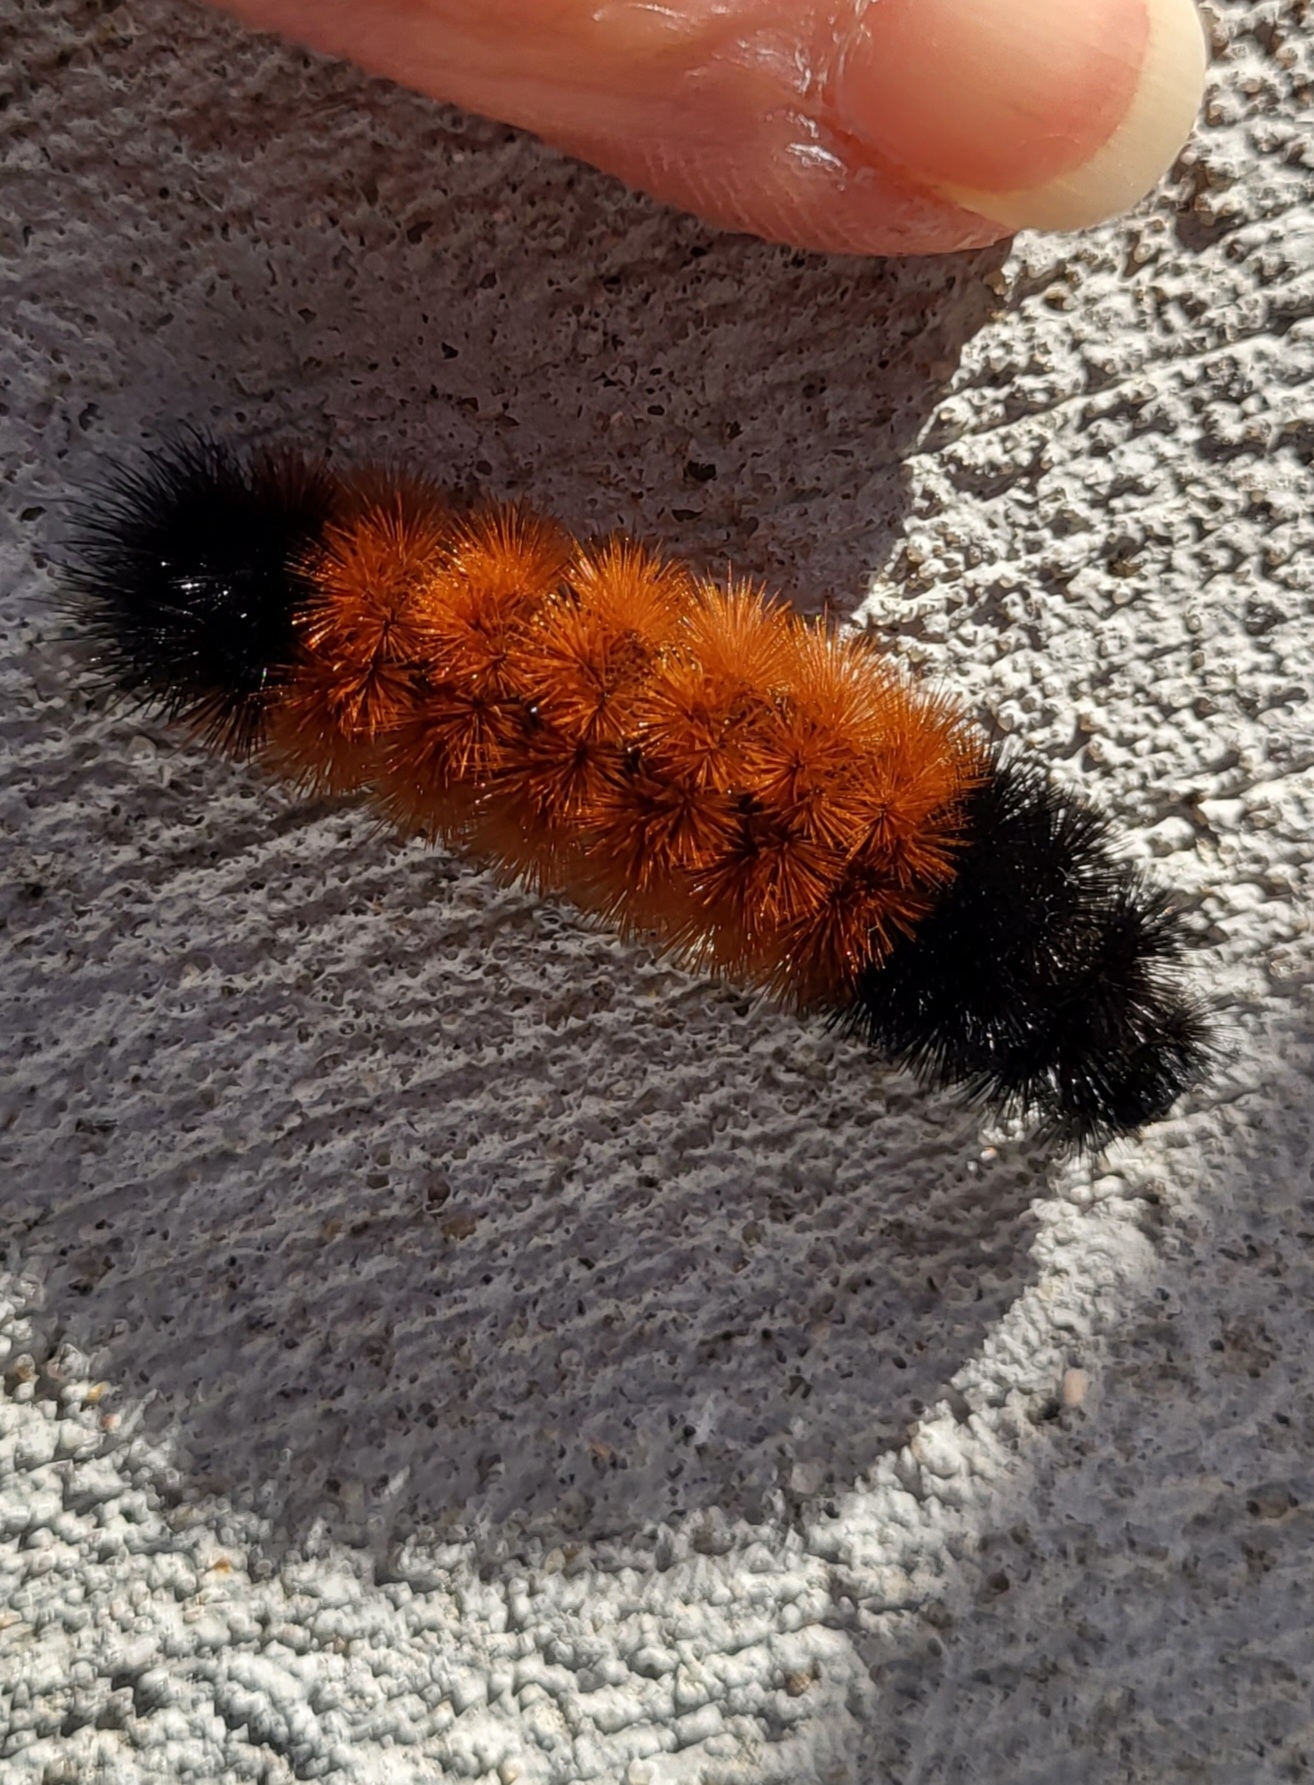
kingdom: Animalia
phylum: Arthropoda
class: Insecta
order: Lepidoptera
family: Erebidae
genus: Pyrrharctia
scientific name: Pyrrharctia isabella
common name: Isabella tiger moth
